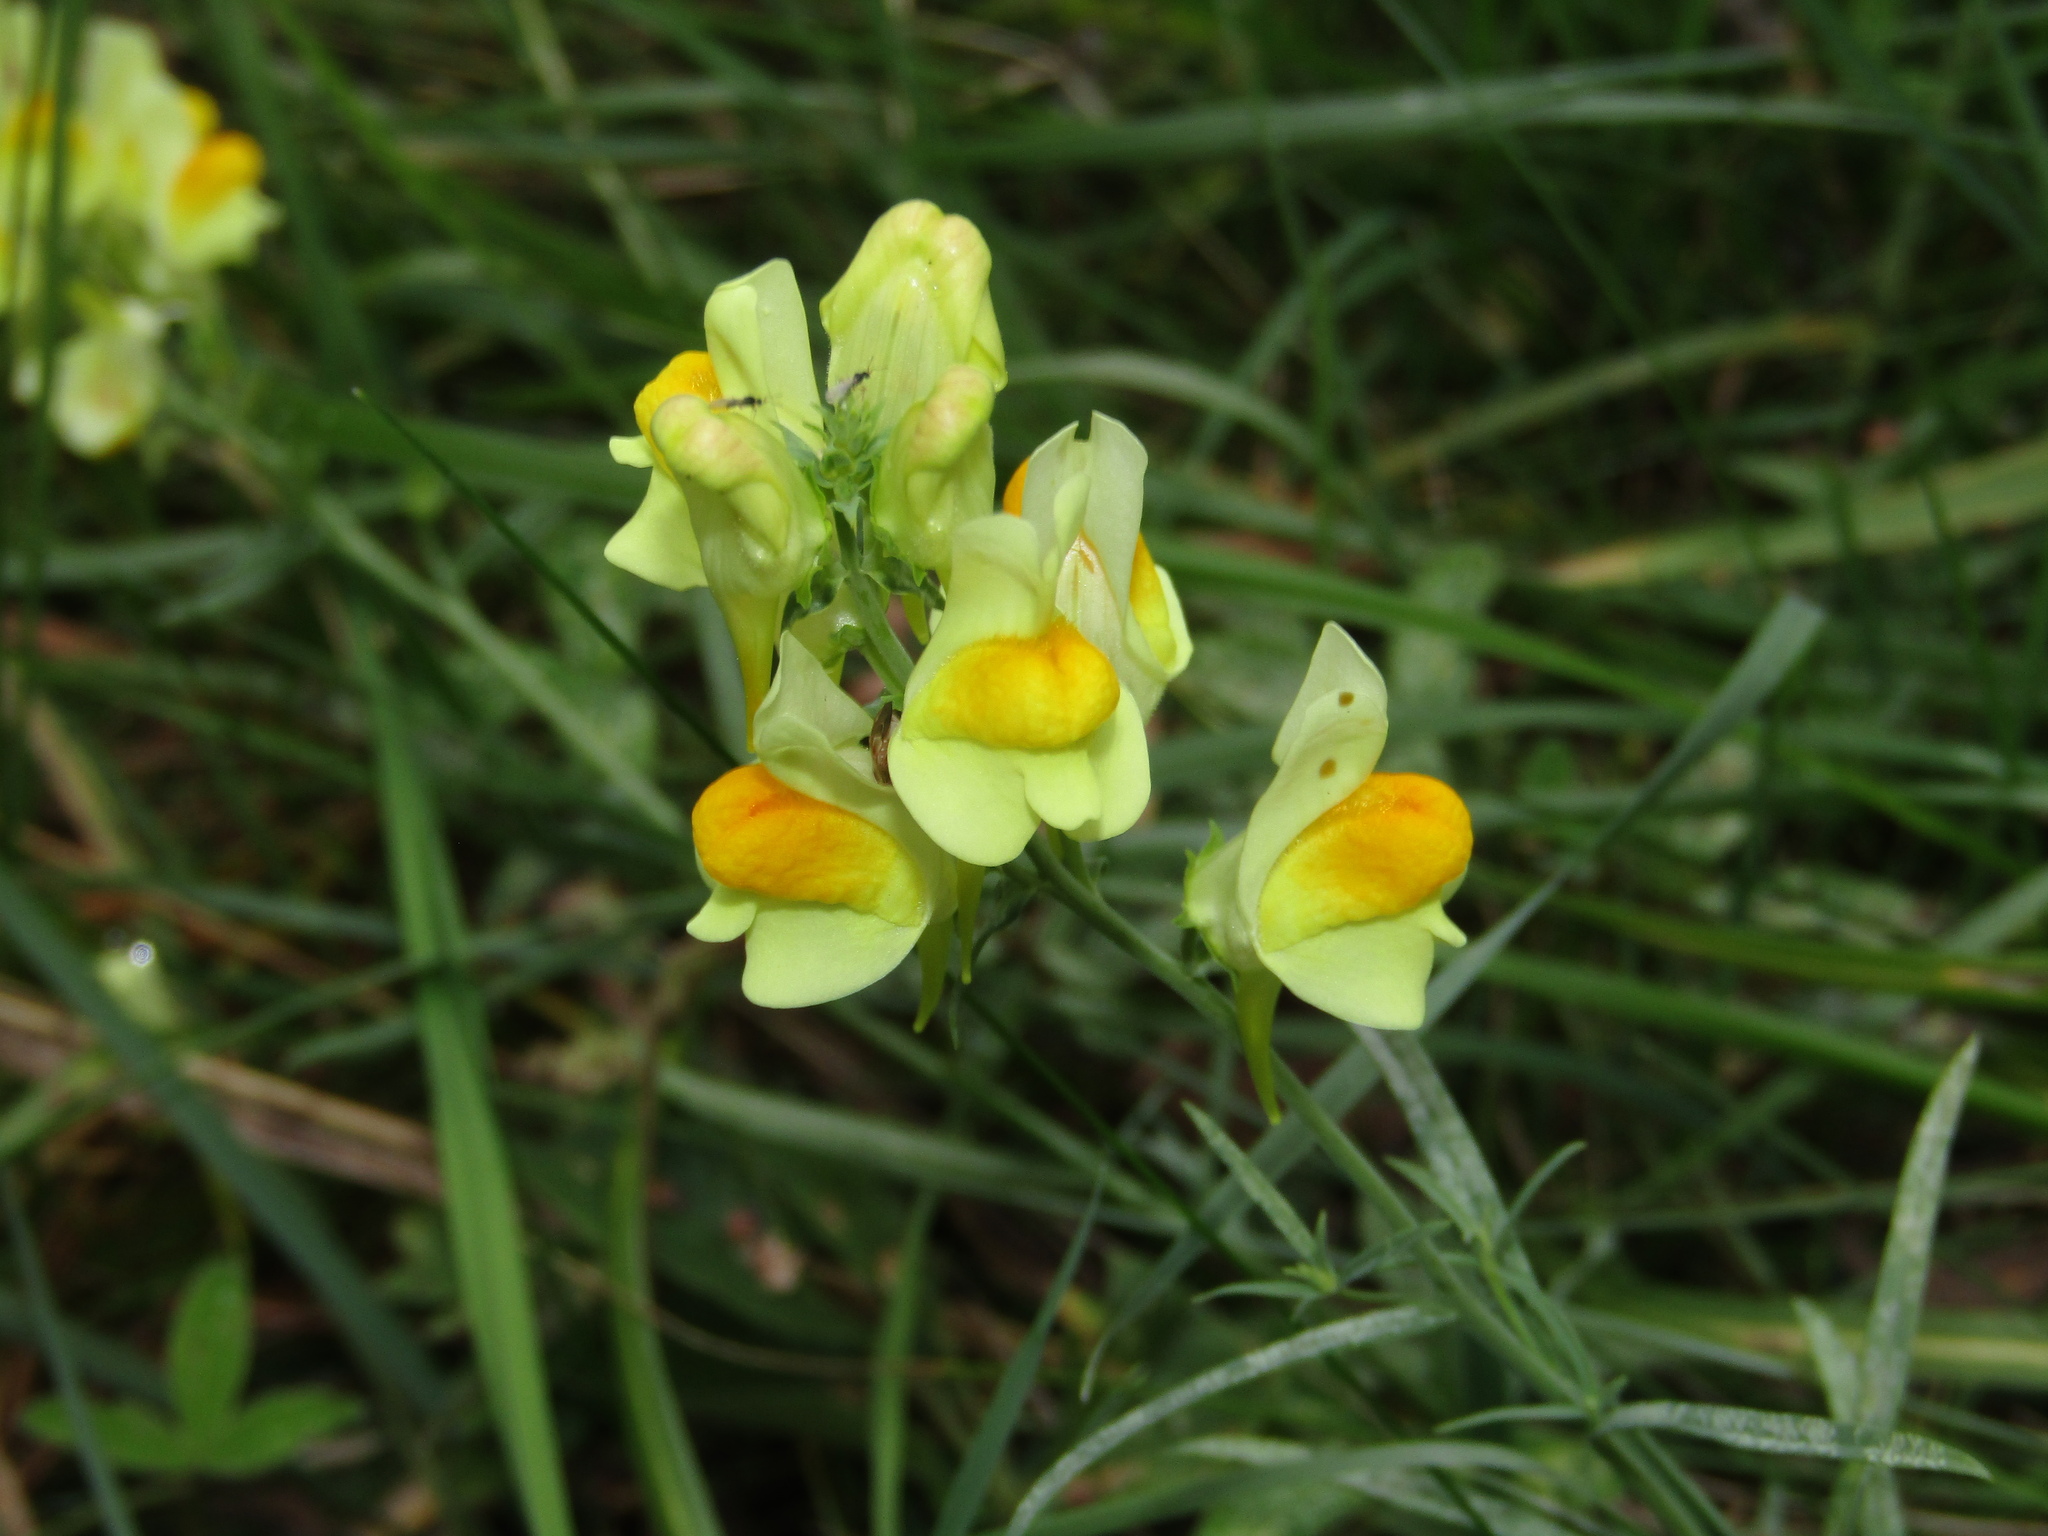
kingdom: Plantae
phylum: Tracheophyta
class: Magnoliopsida
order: Lamiales
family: Plantaginaceae
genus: Linaria
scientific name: Linaria vulgaris
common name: Butter and eggs
